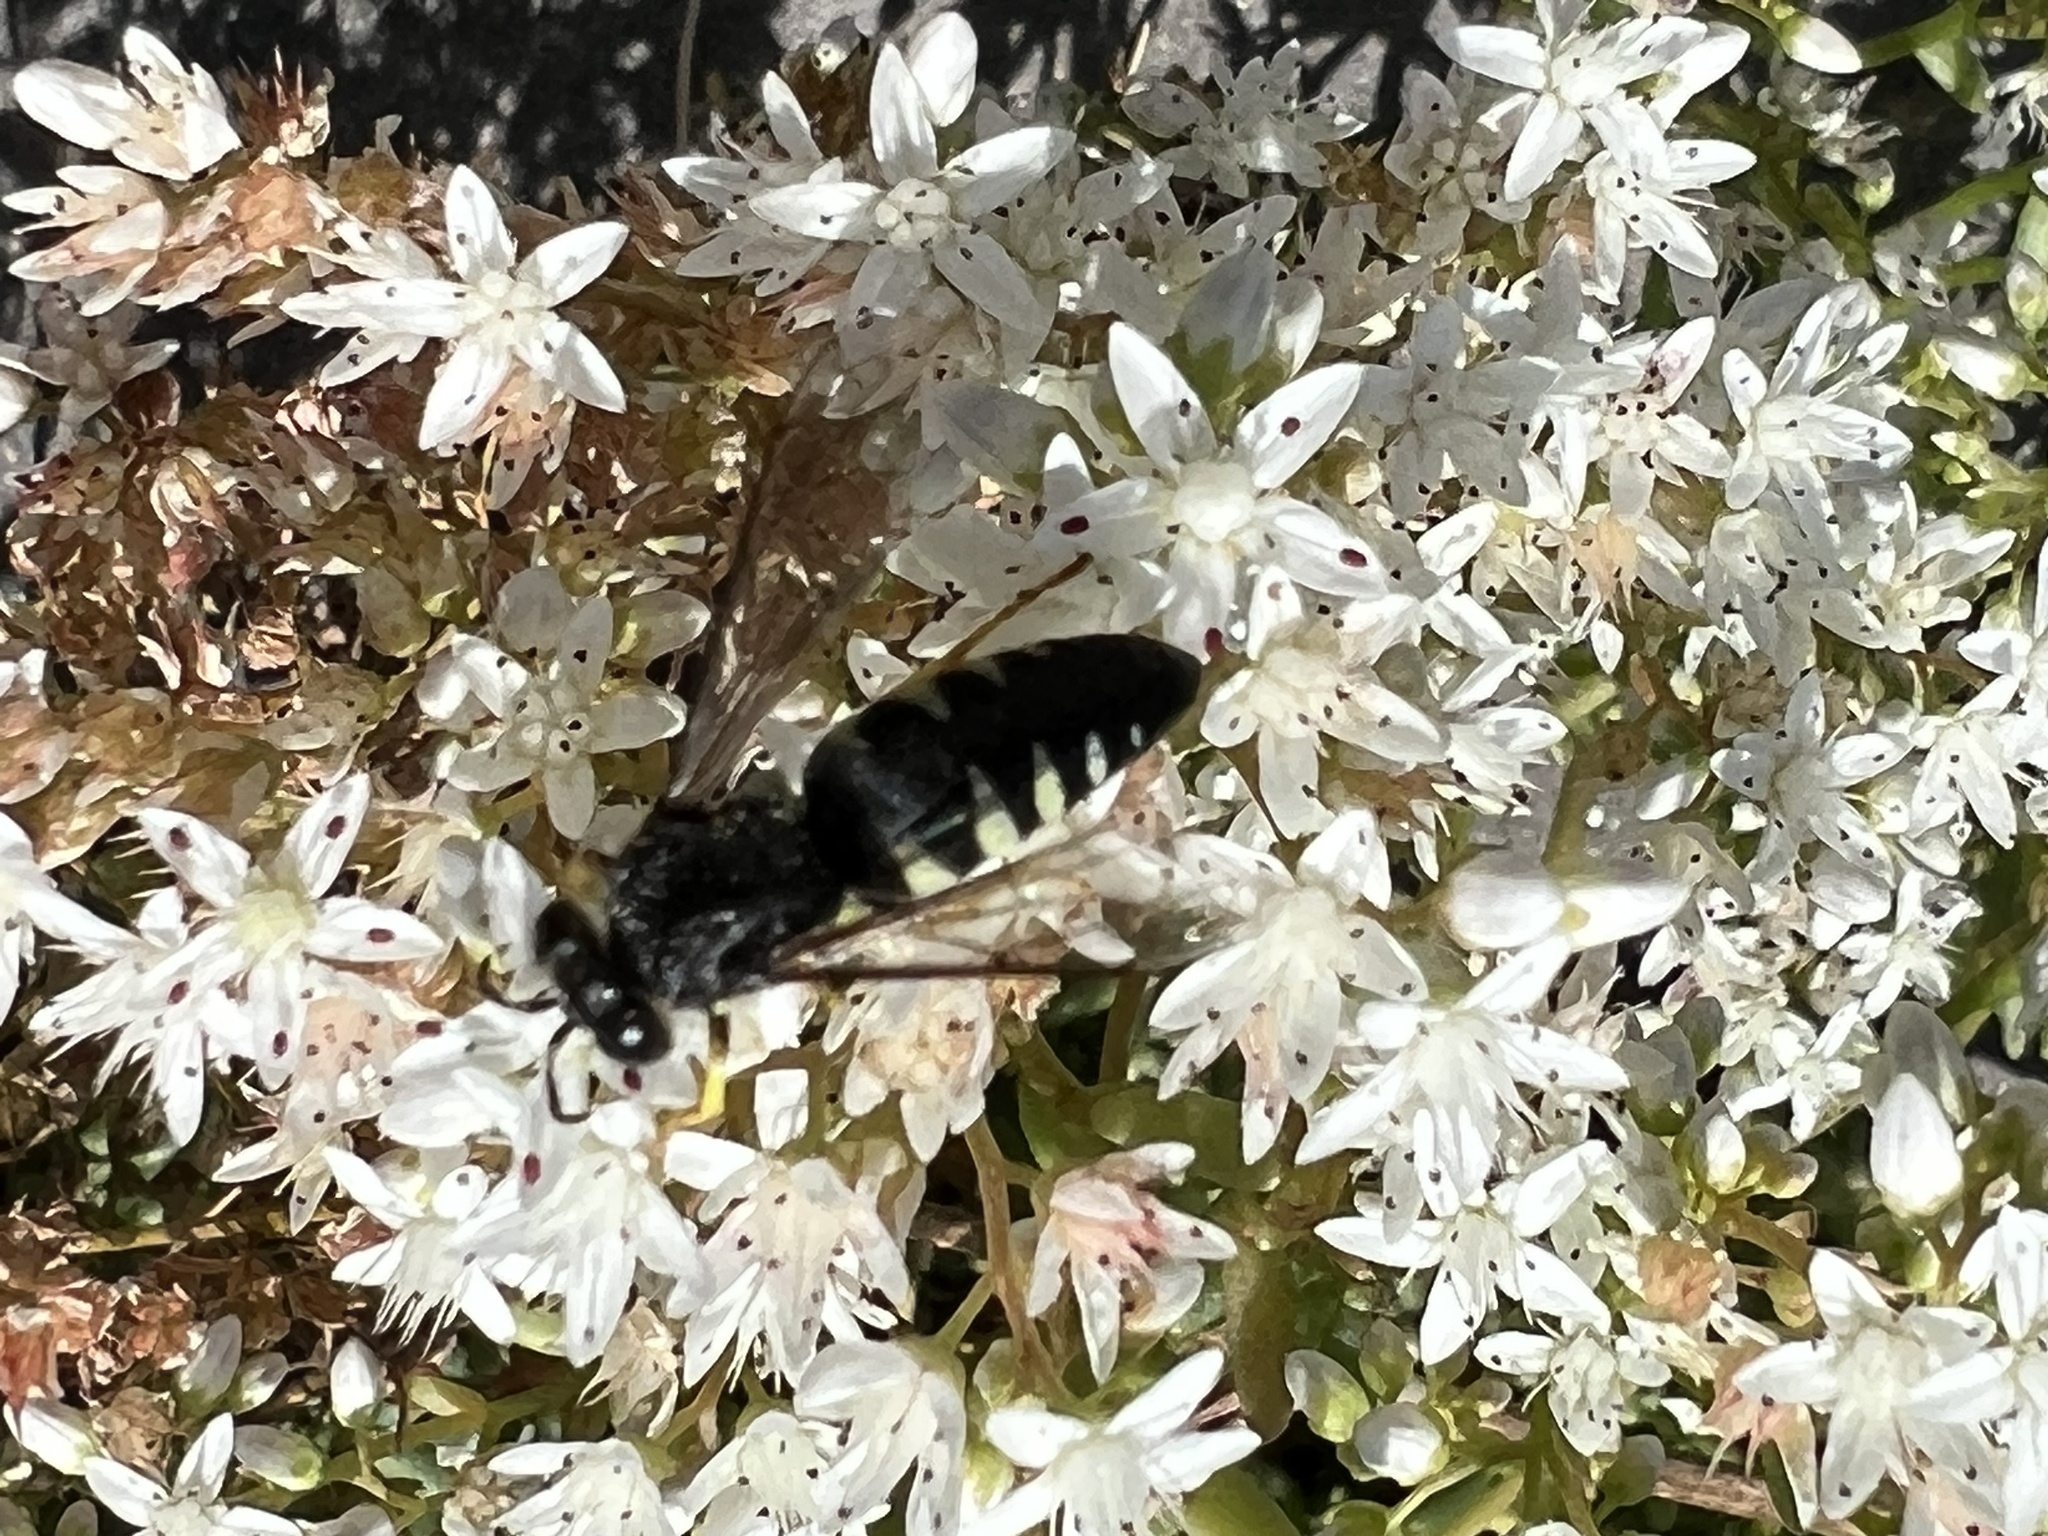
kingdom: Animalia
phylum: Arthropoda
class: Insecta
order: Hymenoptera
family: Crabronidae
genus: Bicyrtes
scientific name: Bicyrtes quadrifasciatus
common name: Four-banded stink bug hunter wasp
